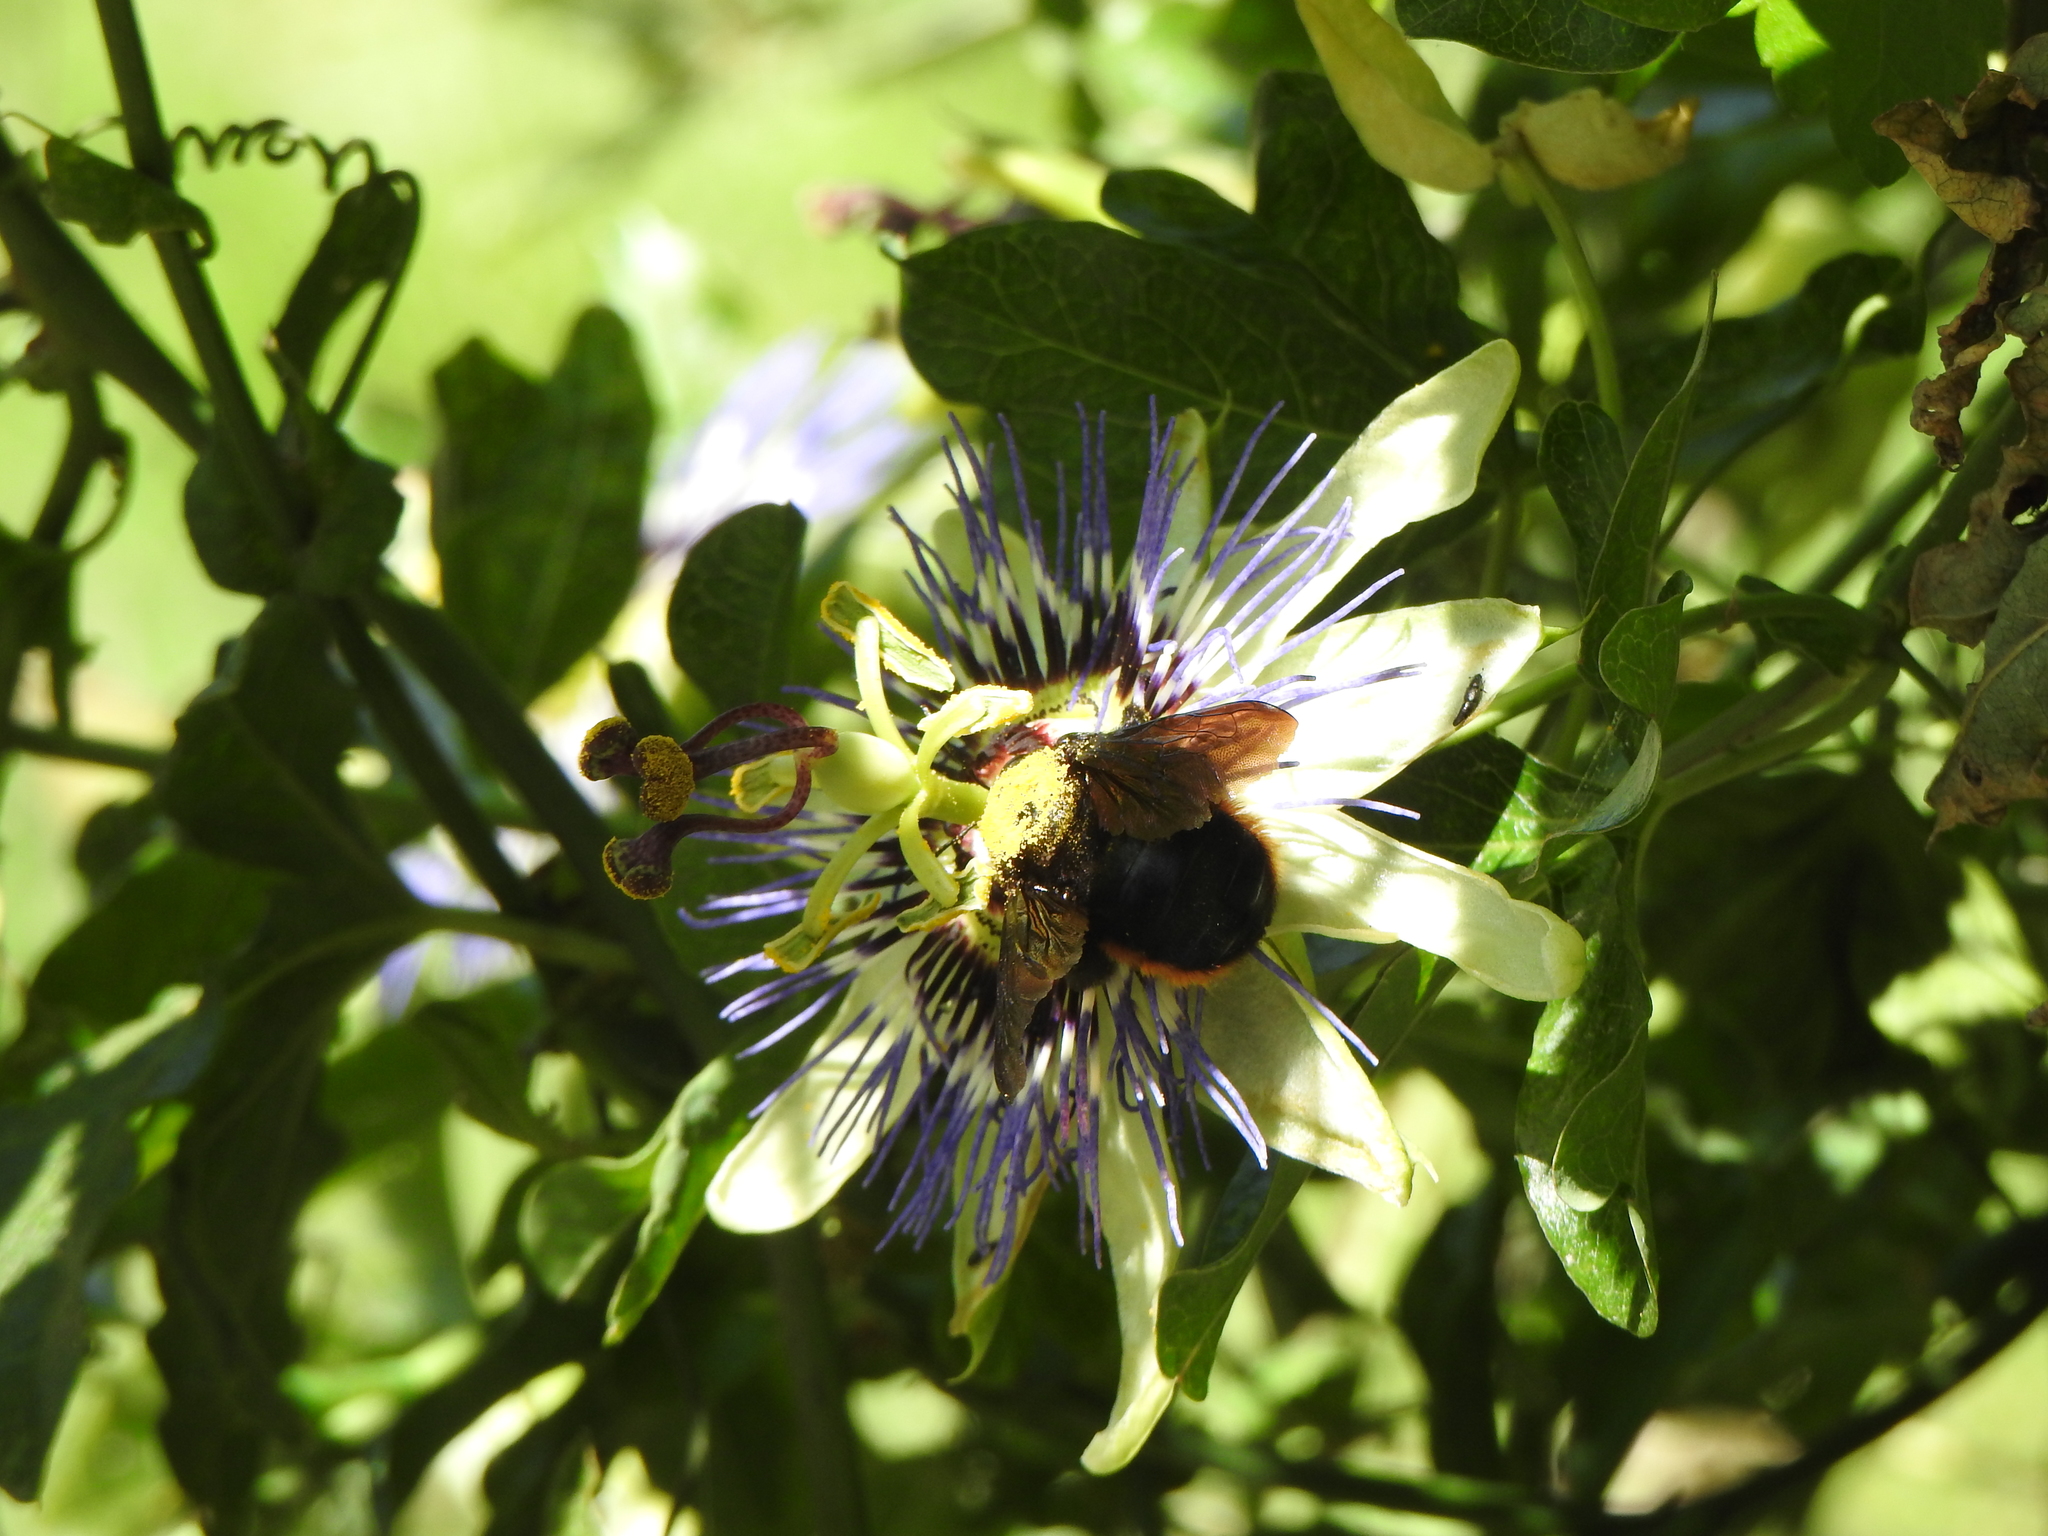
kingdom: Animalia
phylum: Arthropoda
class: Insecta
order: Hymenoptera
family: Apidae
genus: Xylocopa
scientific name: Xylocopa augusti
